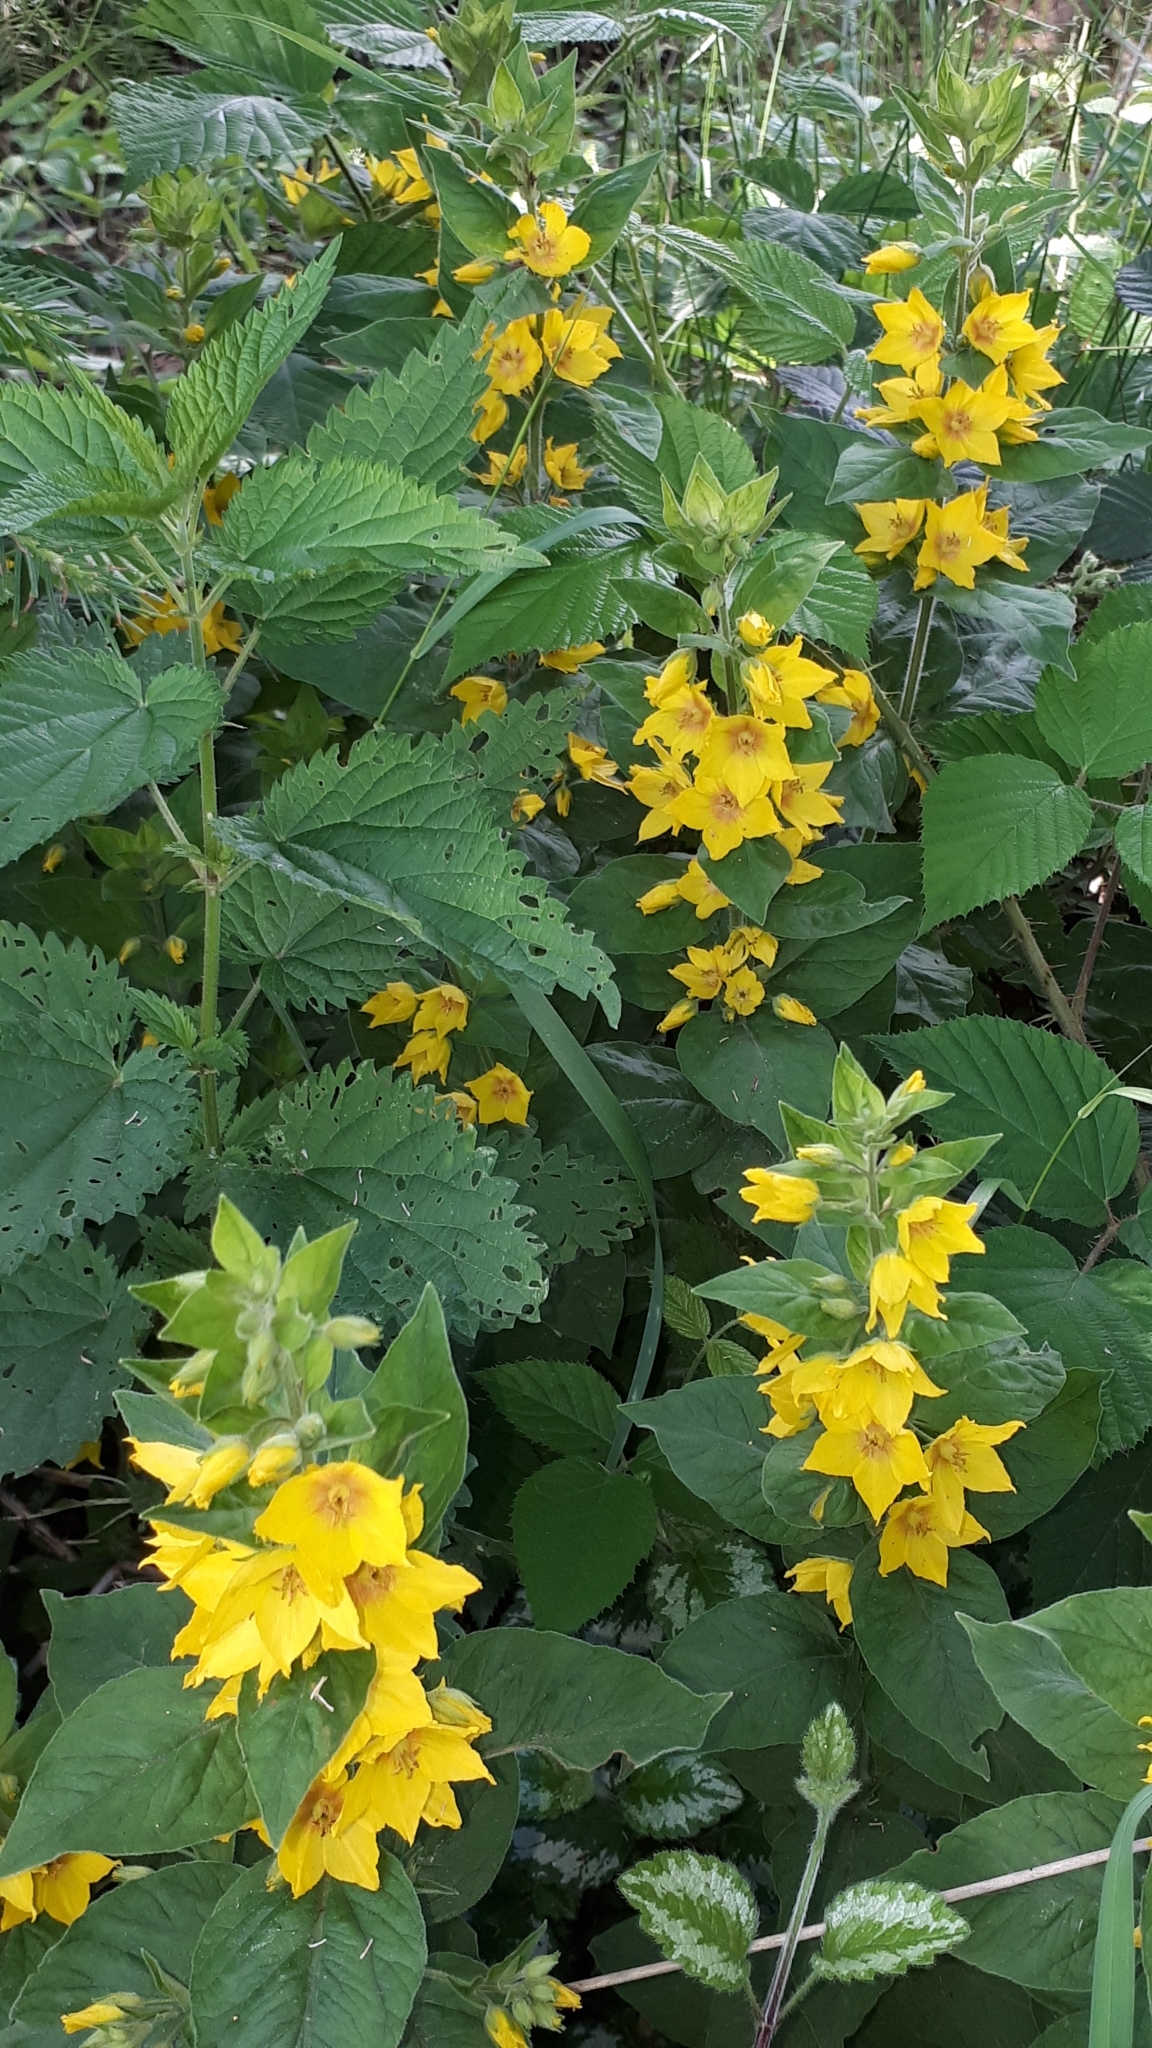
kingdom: Plantae
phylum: Tracheophyta
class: Magnoliopsida
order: Ericales
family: Primulaceae
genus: Lysimachia
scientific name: Lysimachia punctata
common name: Dotted loosestrife
